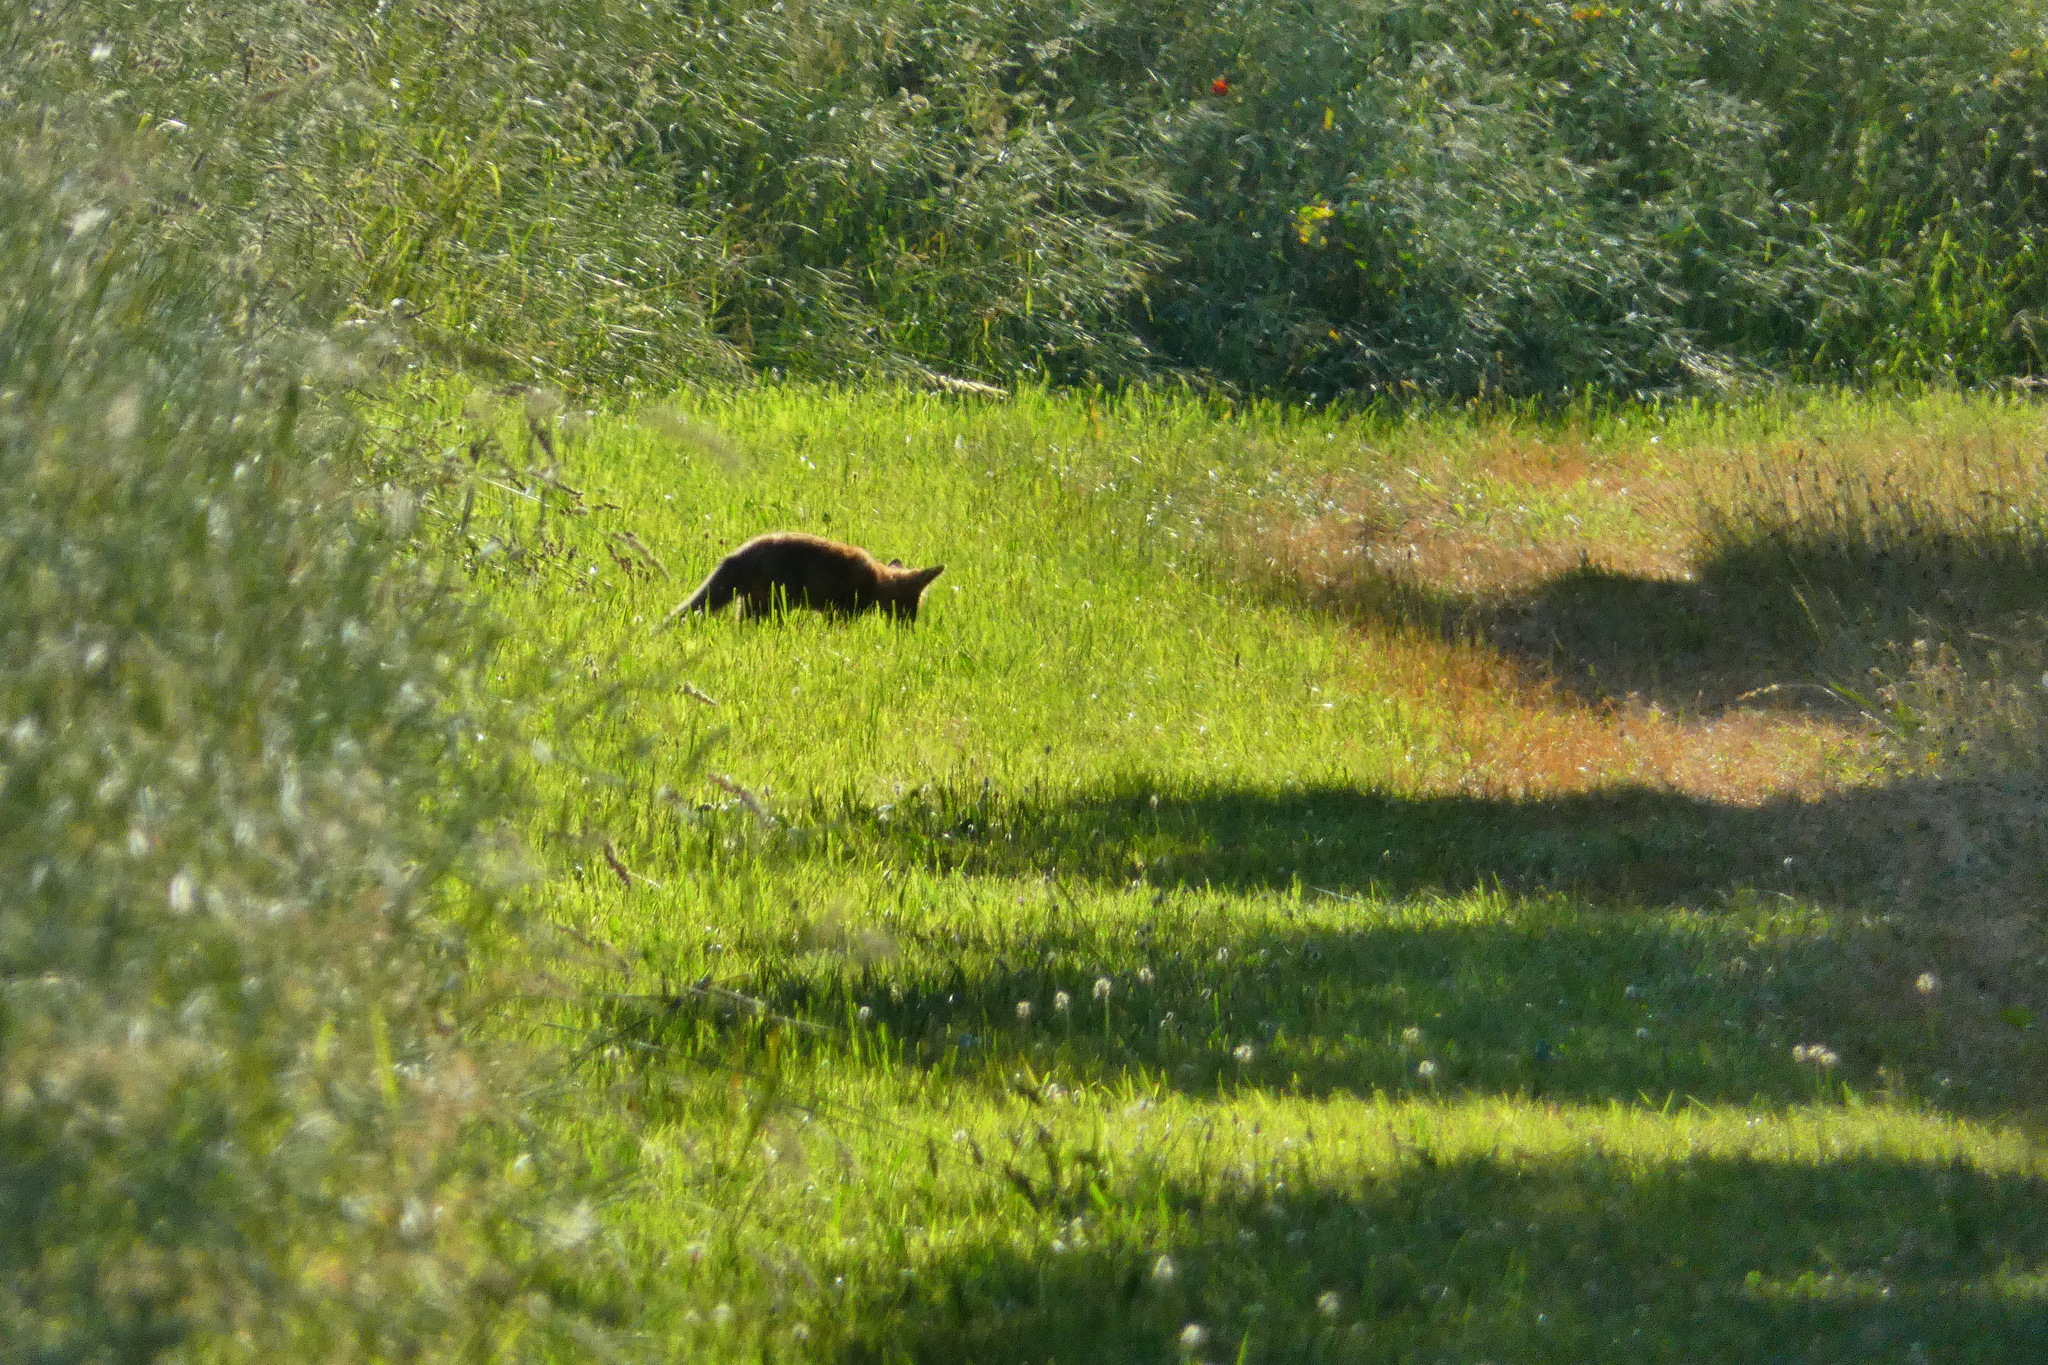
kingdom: Animalia
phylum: Chordata
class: Mammalia
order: Carnivora
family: Canidae
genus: Vulpes
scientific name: Vulpes vulpes
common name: Red fox
